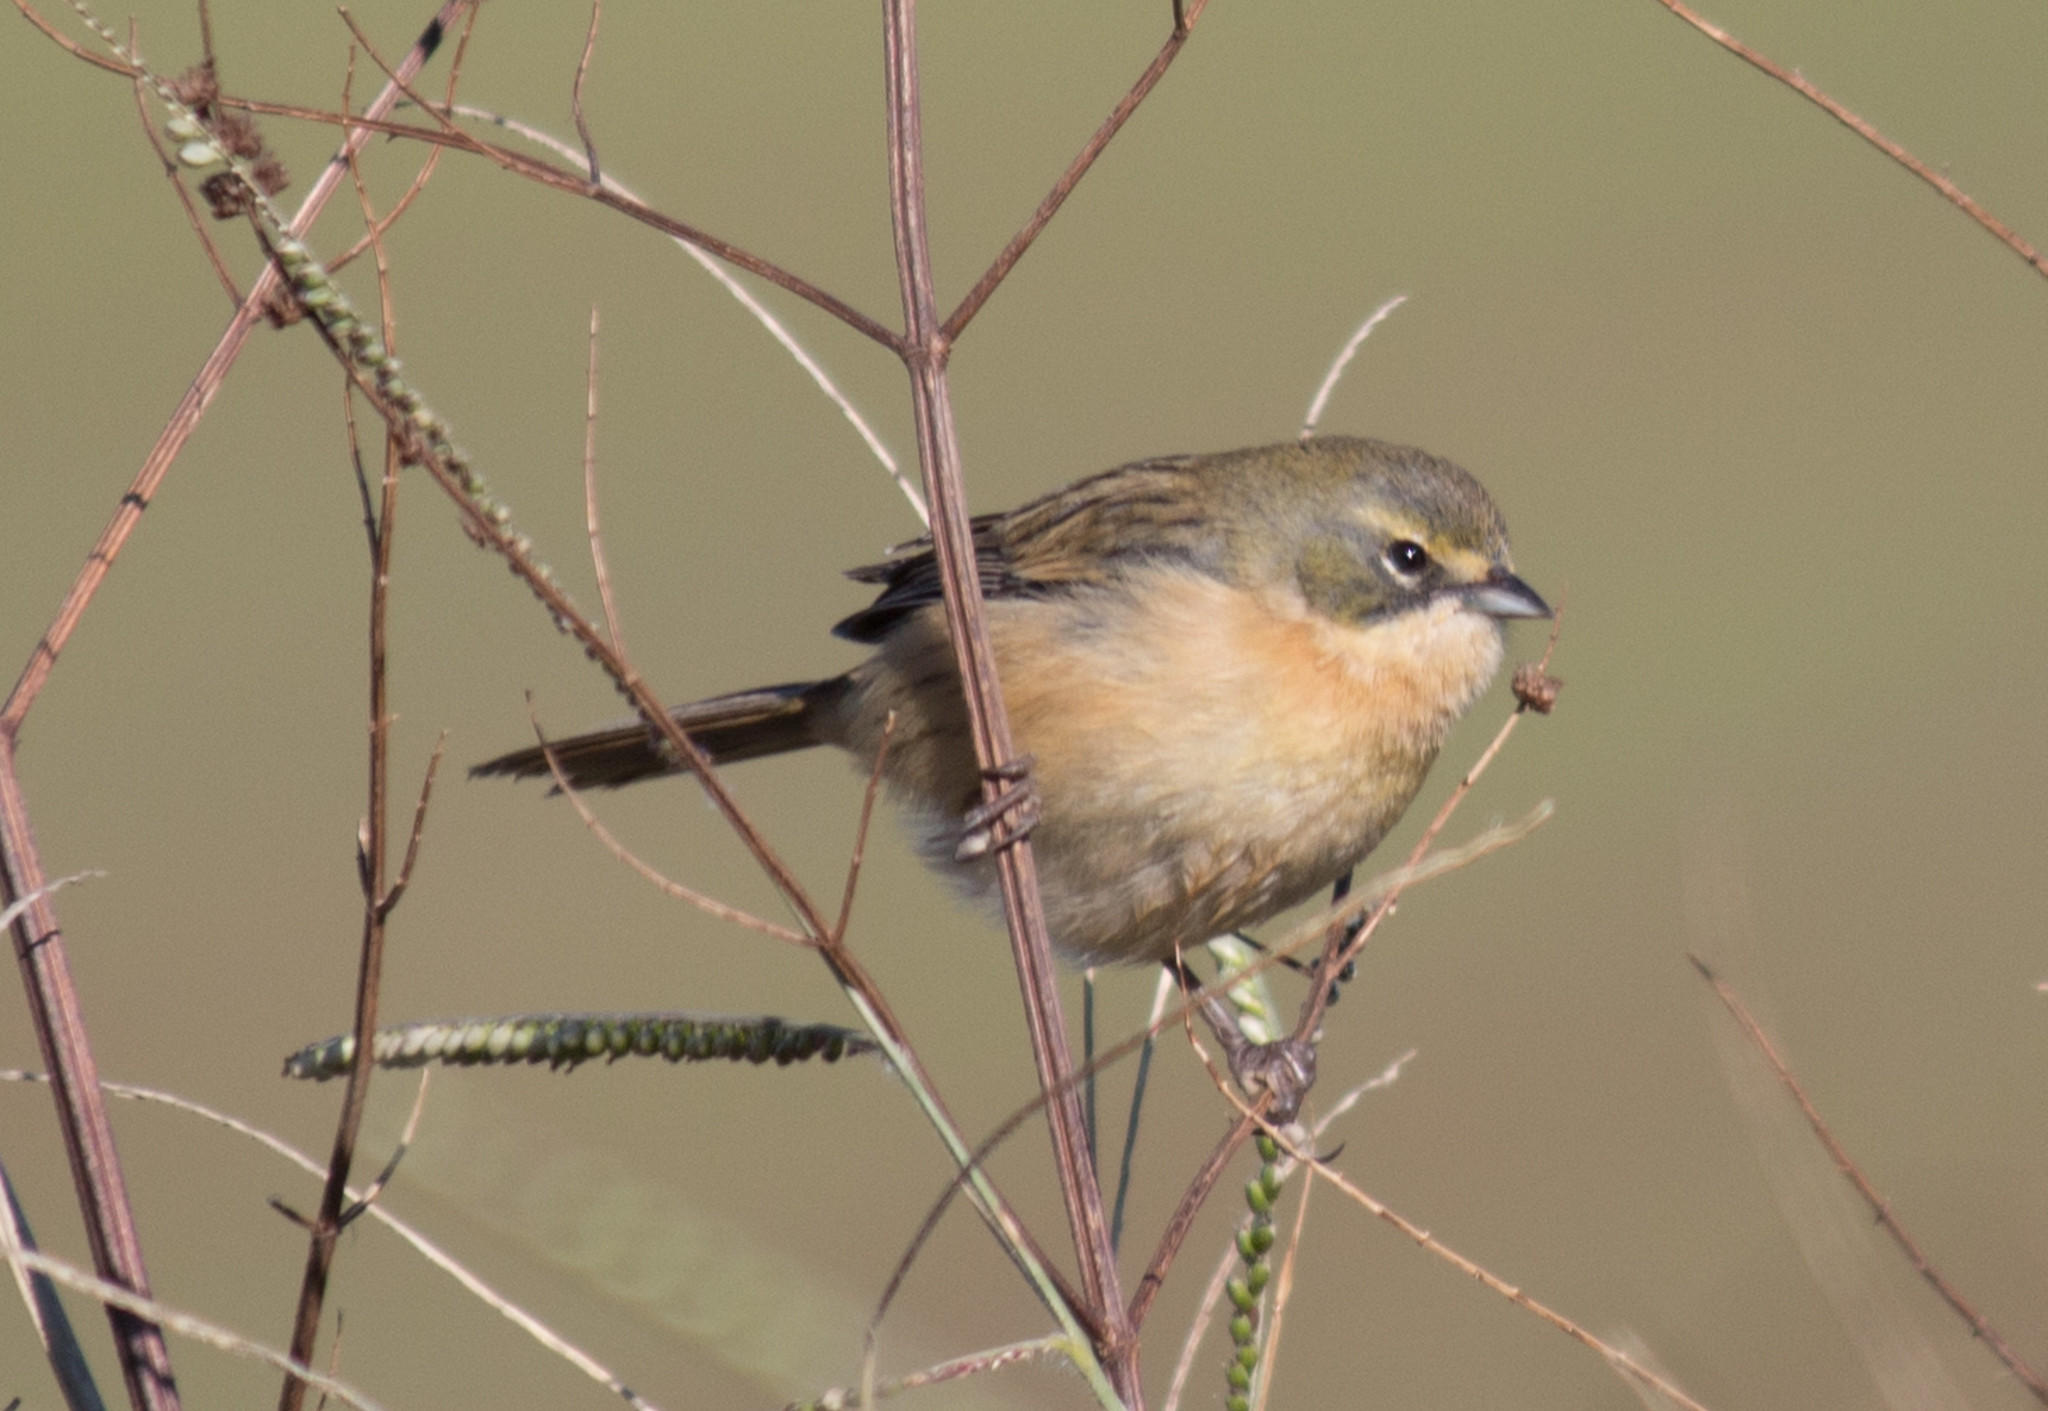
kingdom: Animalia
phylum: Chordata
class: Aves
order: Passeriformes
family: Thraupidae
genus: Donacospiza
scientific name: Donacospiza albifrons
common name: Long-tailed reed finch
